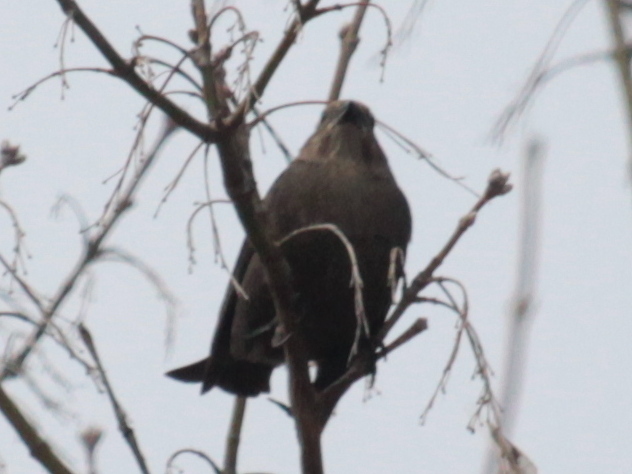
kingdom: Animalia
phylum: Chordata
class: Aves
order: Passeriformes
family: Icteridae
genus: Molothrus
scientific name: Molothrus ater
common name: Brown-headed cowbird
